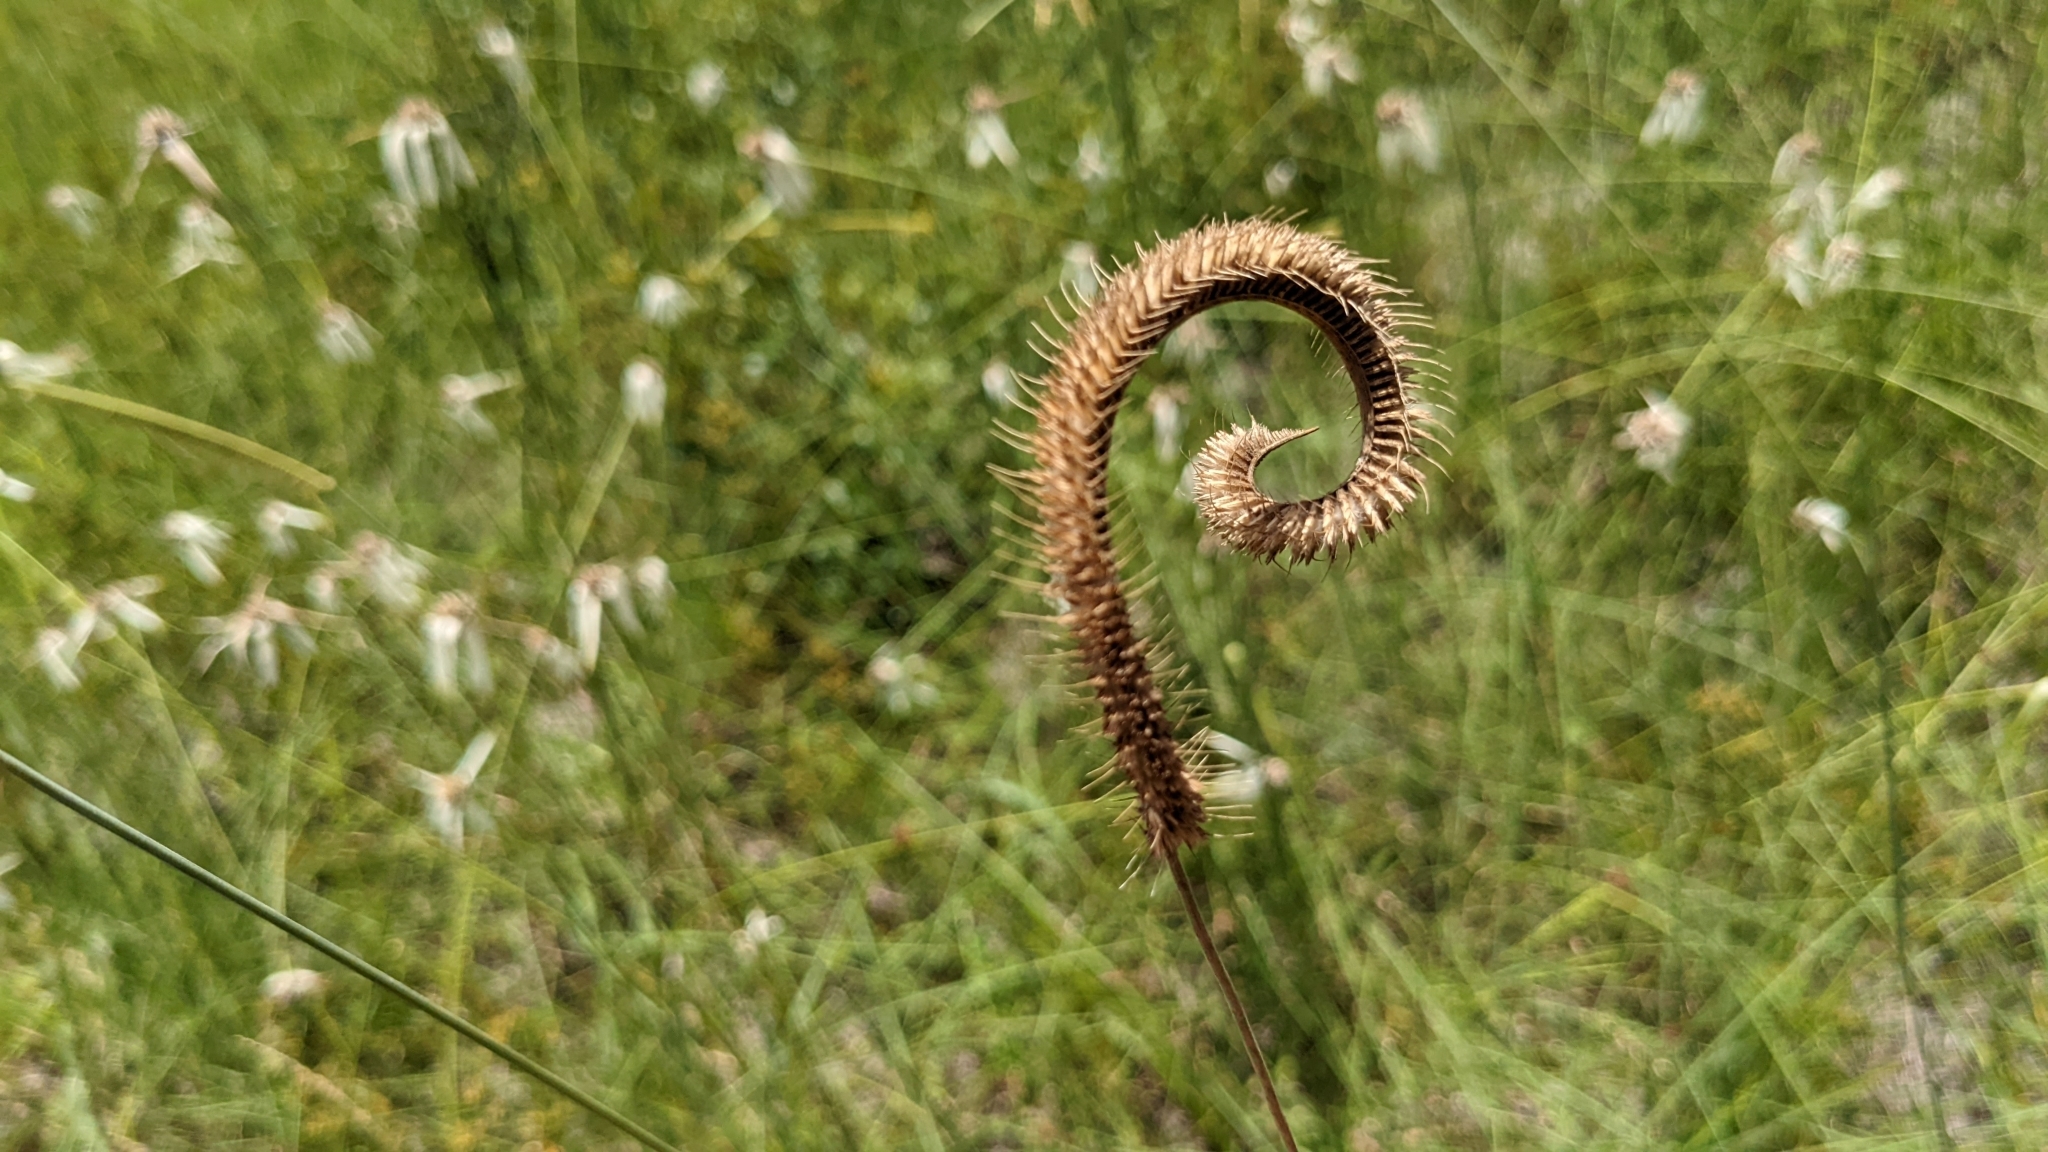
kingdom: Plantae
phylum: Tracheophyta
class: Liliopsida
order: Poales
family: Poaceae
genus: Ctenium
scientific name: Ctenium aromaticum
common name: Toothache grass
